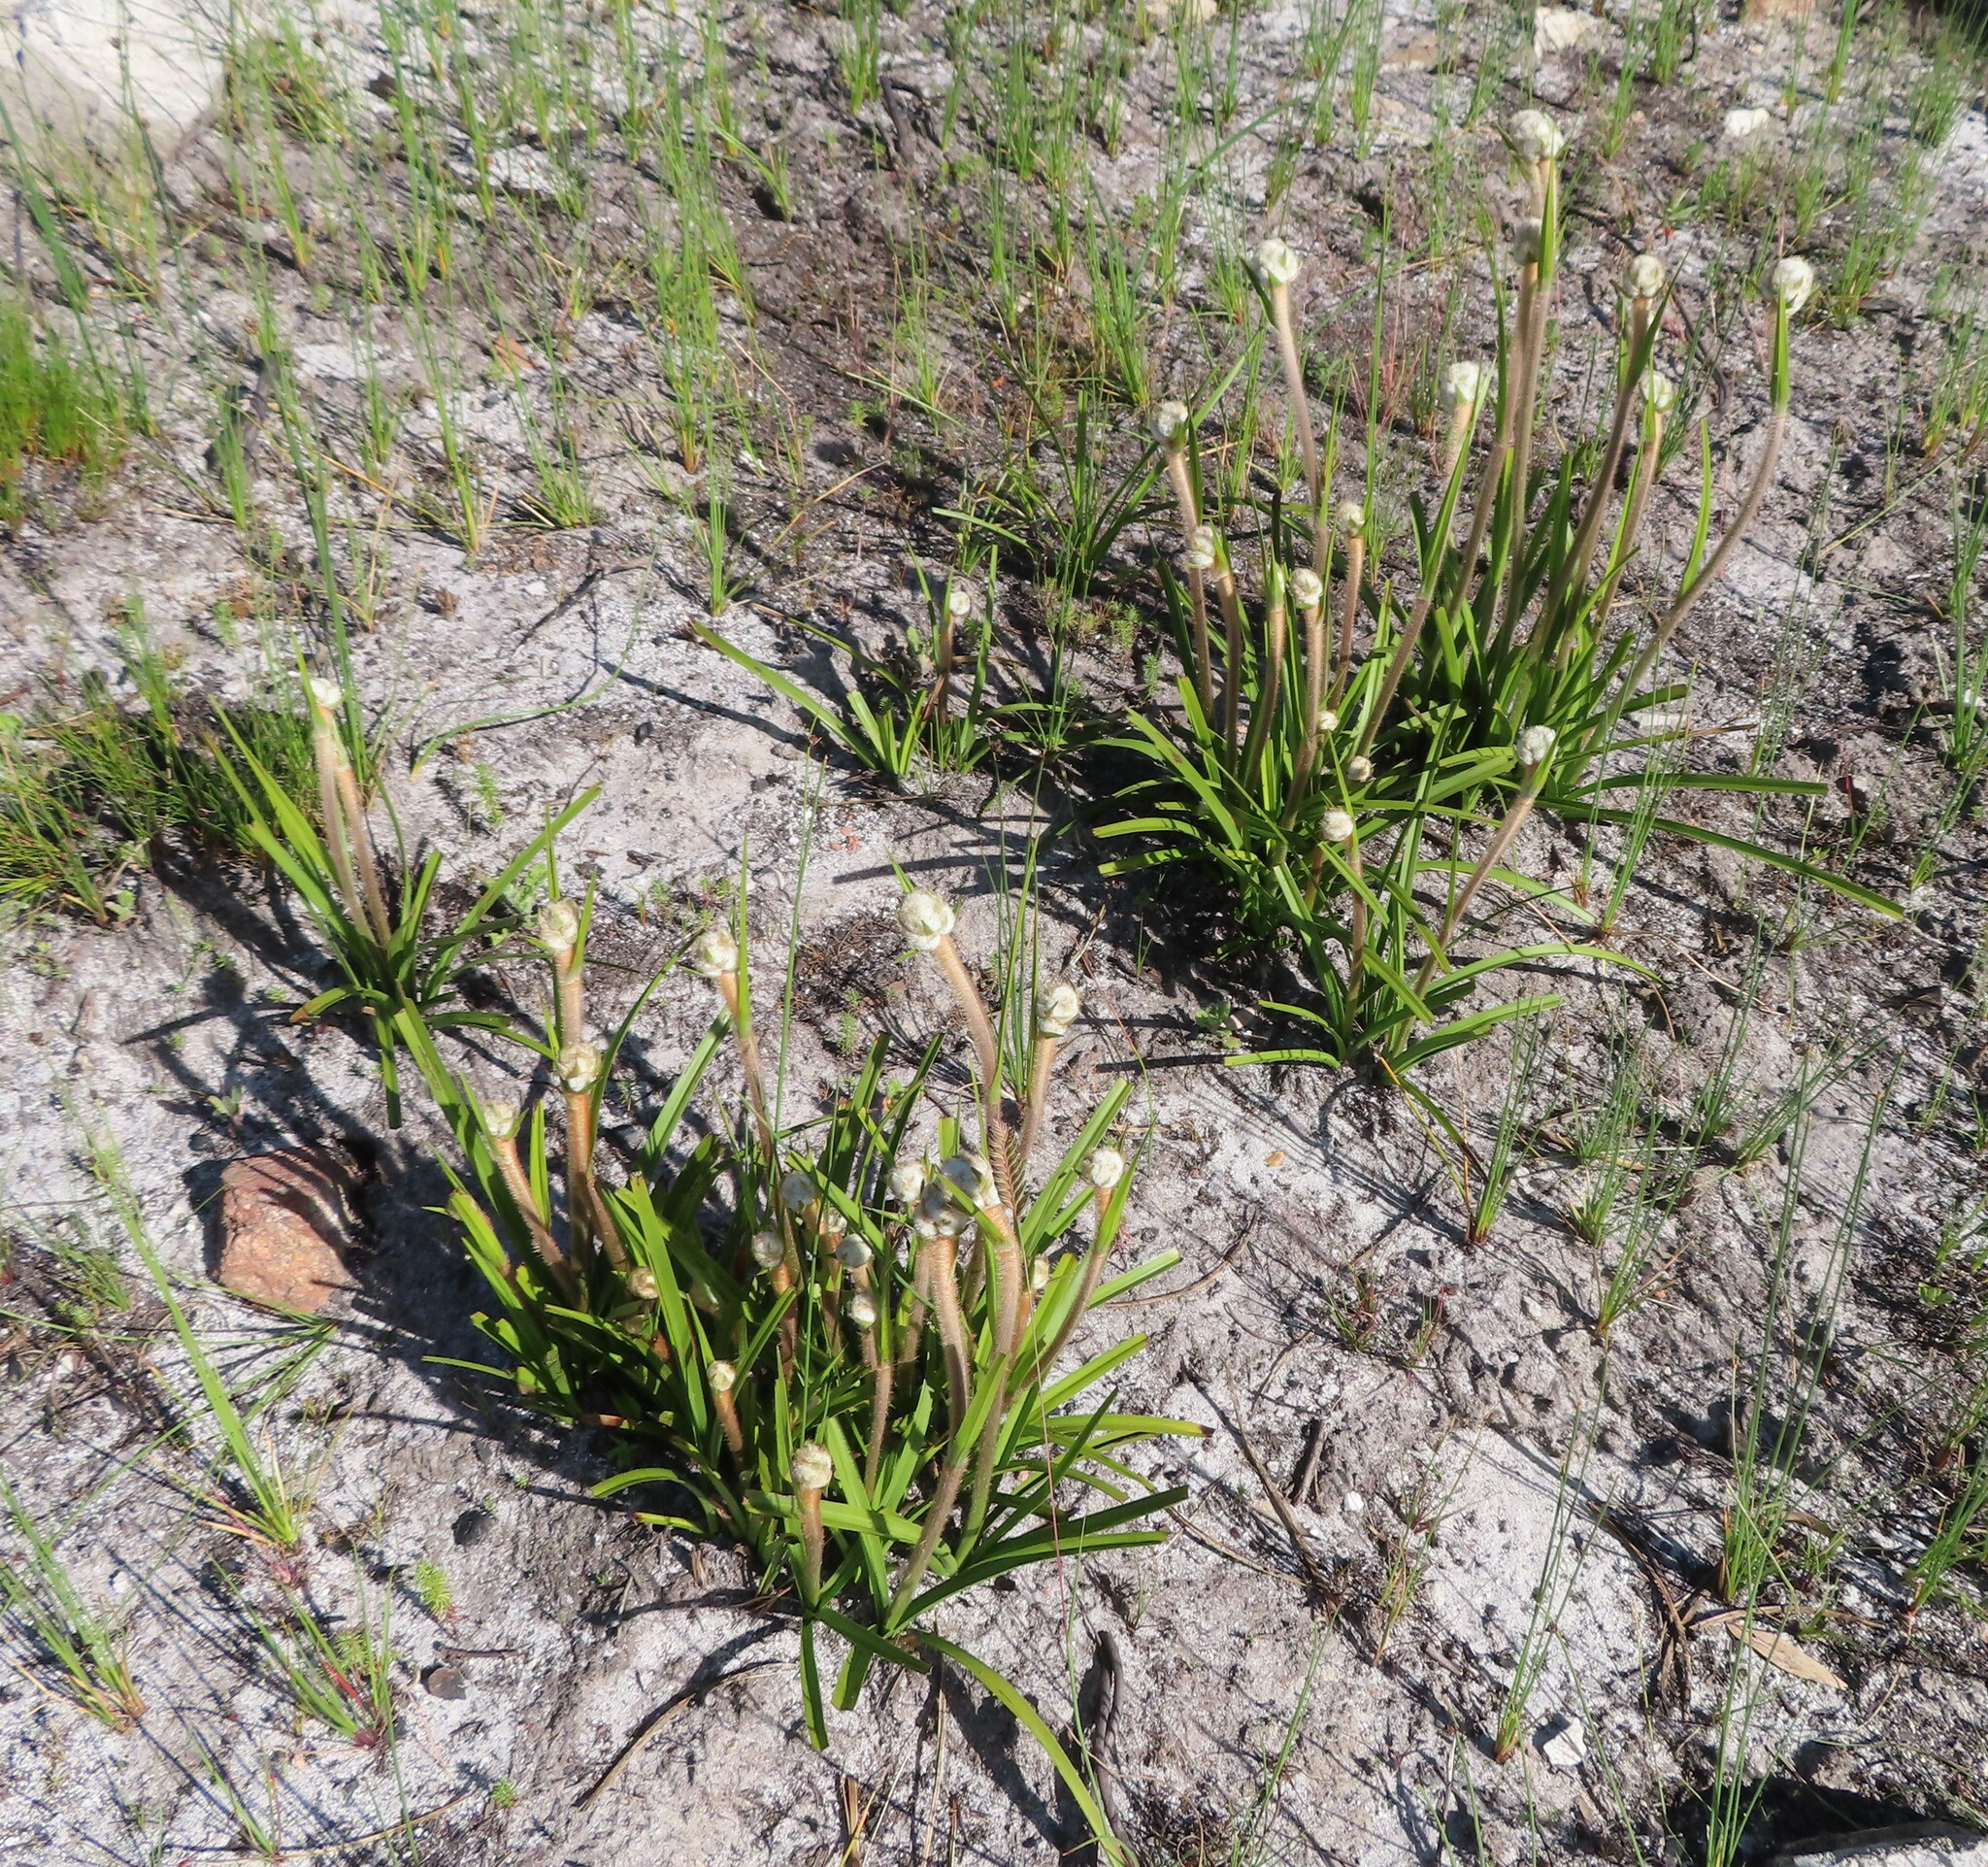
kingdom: Plantae
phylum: Tracheophyta
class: Liliopsida
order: Asparagales
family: Lanariaceae
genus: Lanaria
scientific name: Lanaria lanata
